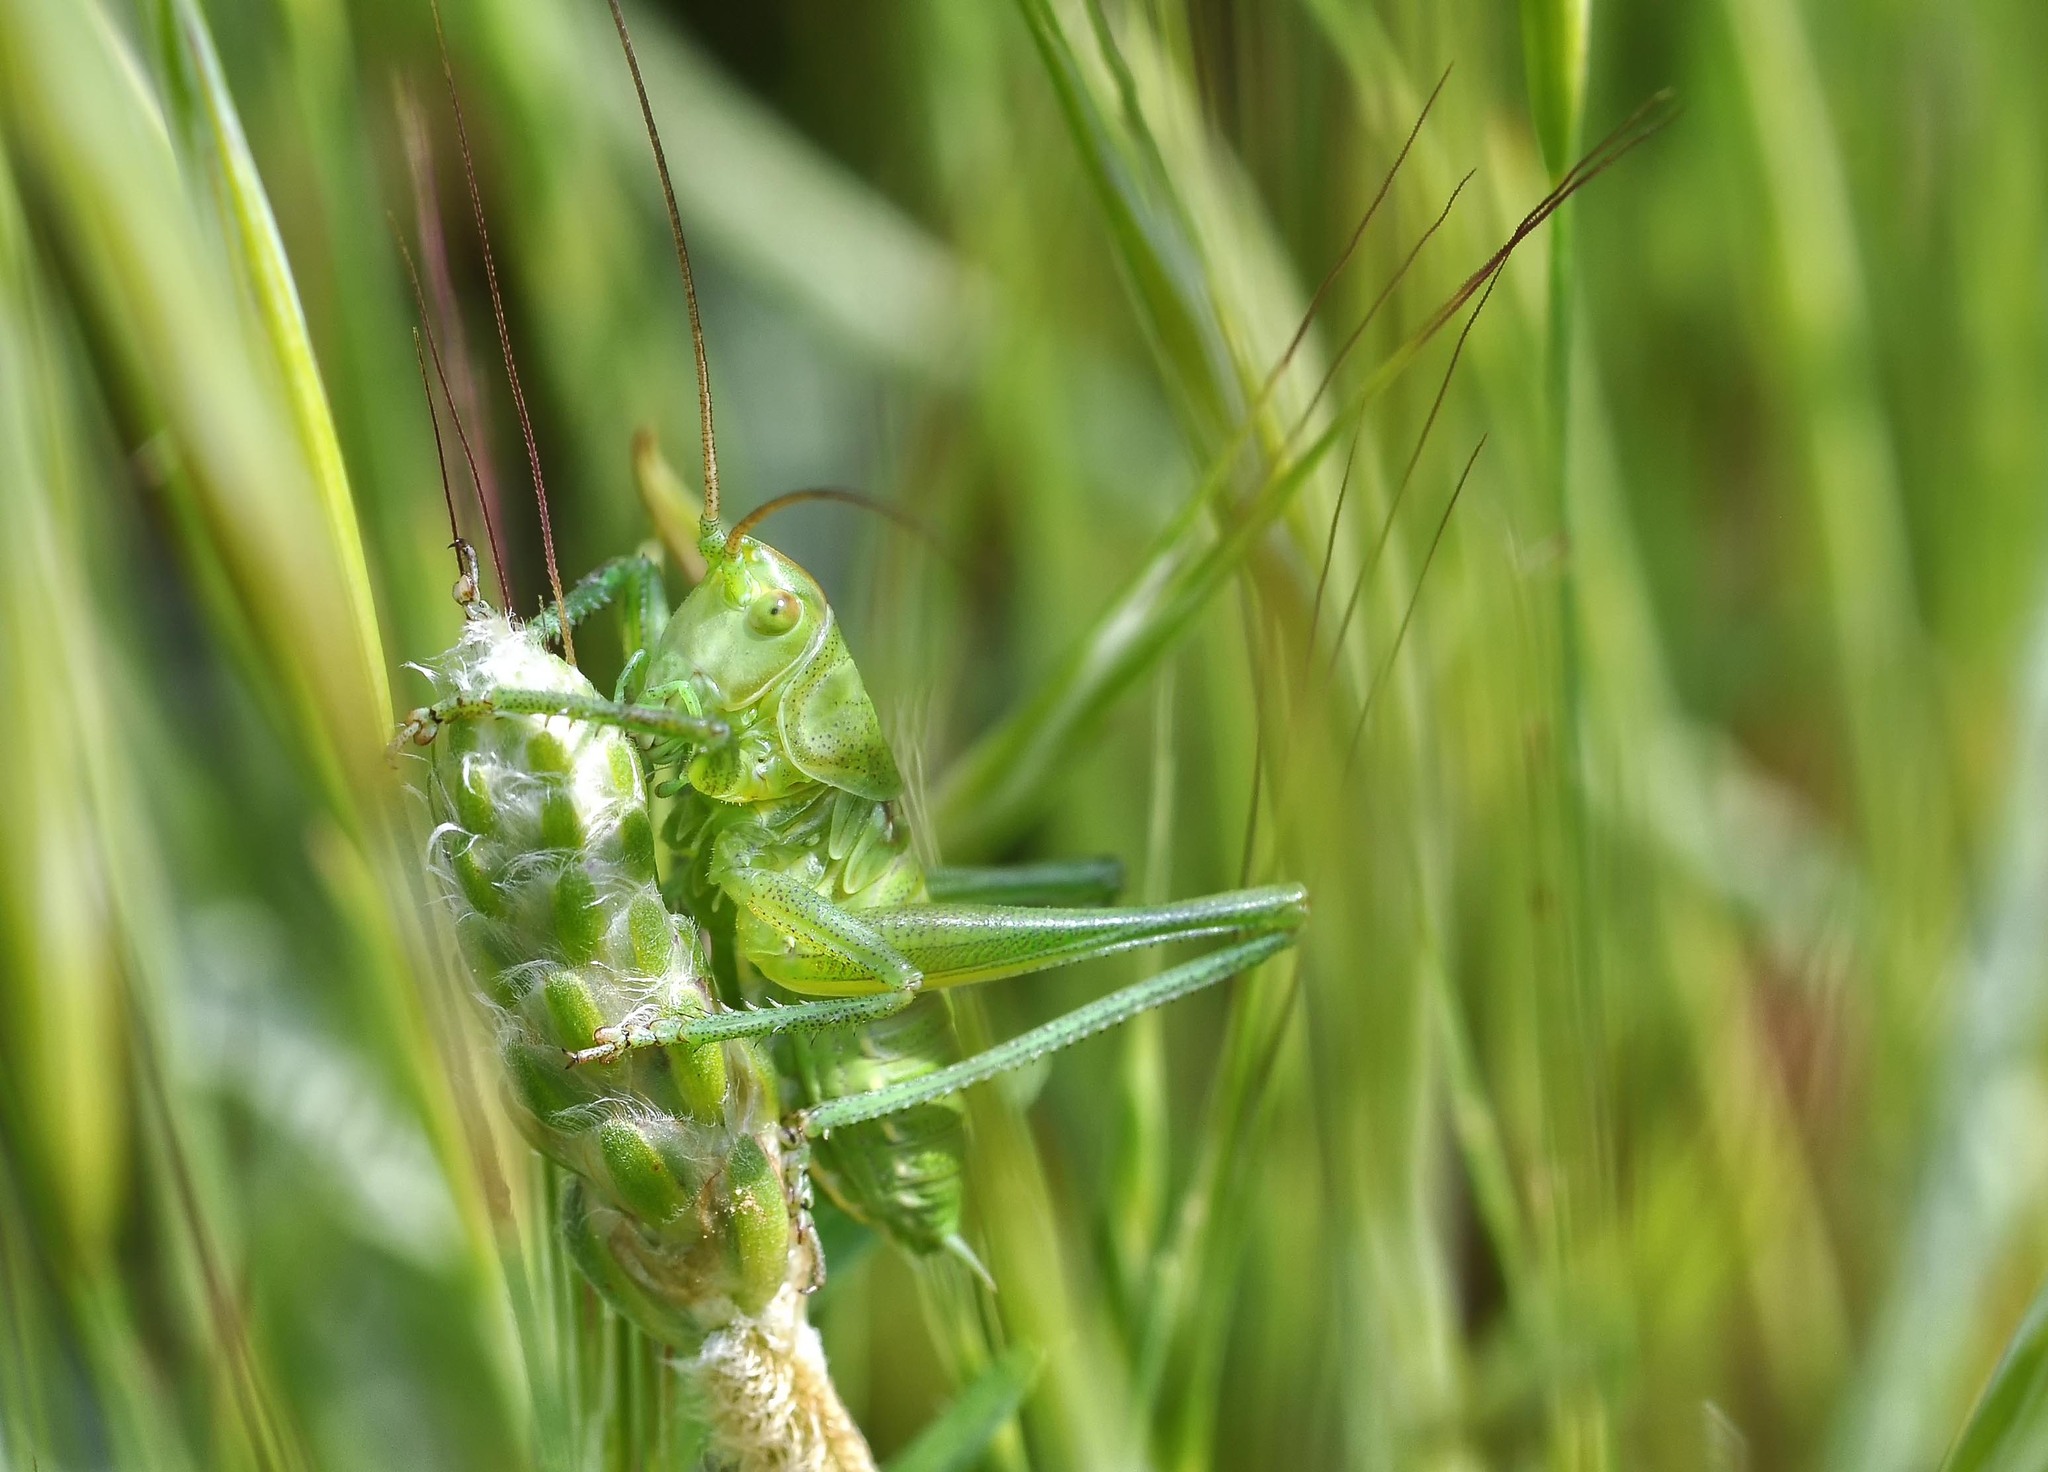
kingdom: Animalia
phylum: Arthropoda
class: Insecta
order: Orthoptera
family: Tettigoniidae
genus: Tettigonia
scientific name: Tettigonia viridissima
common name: Great green bush-cricket
